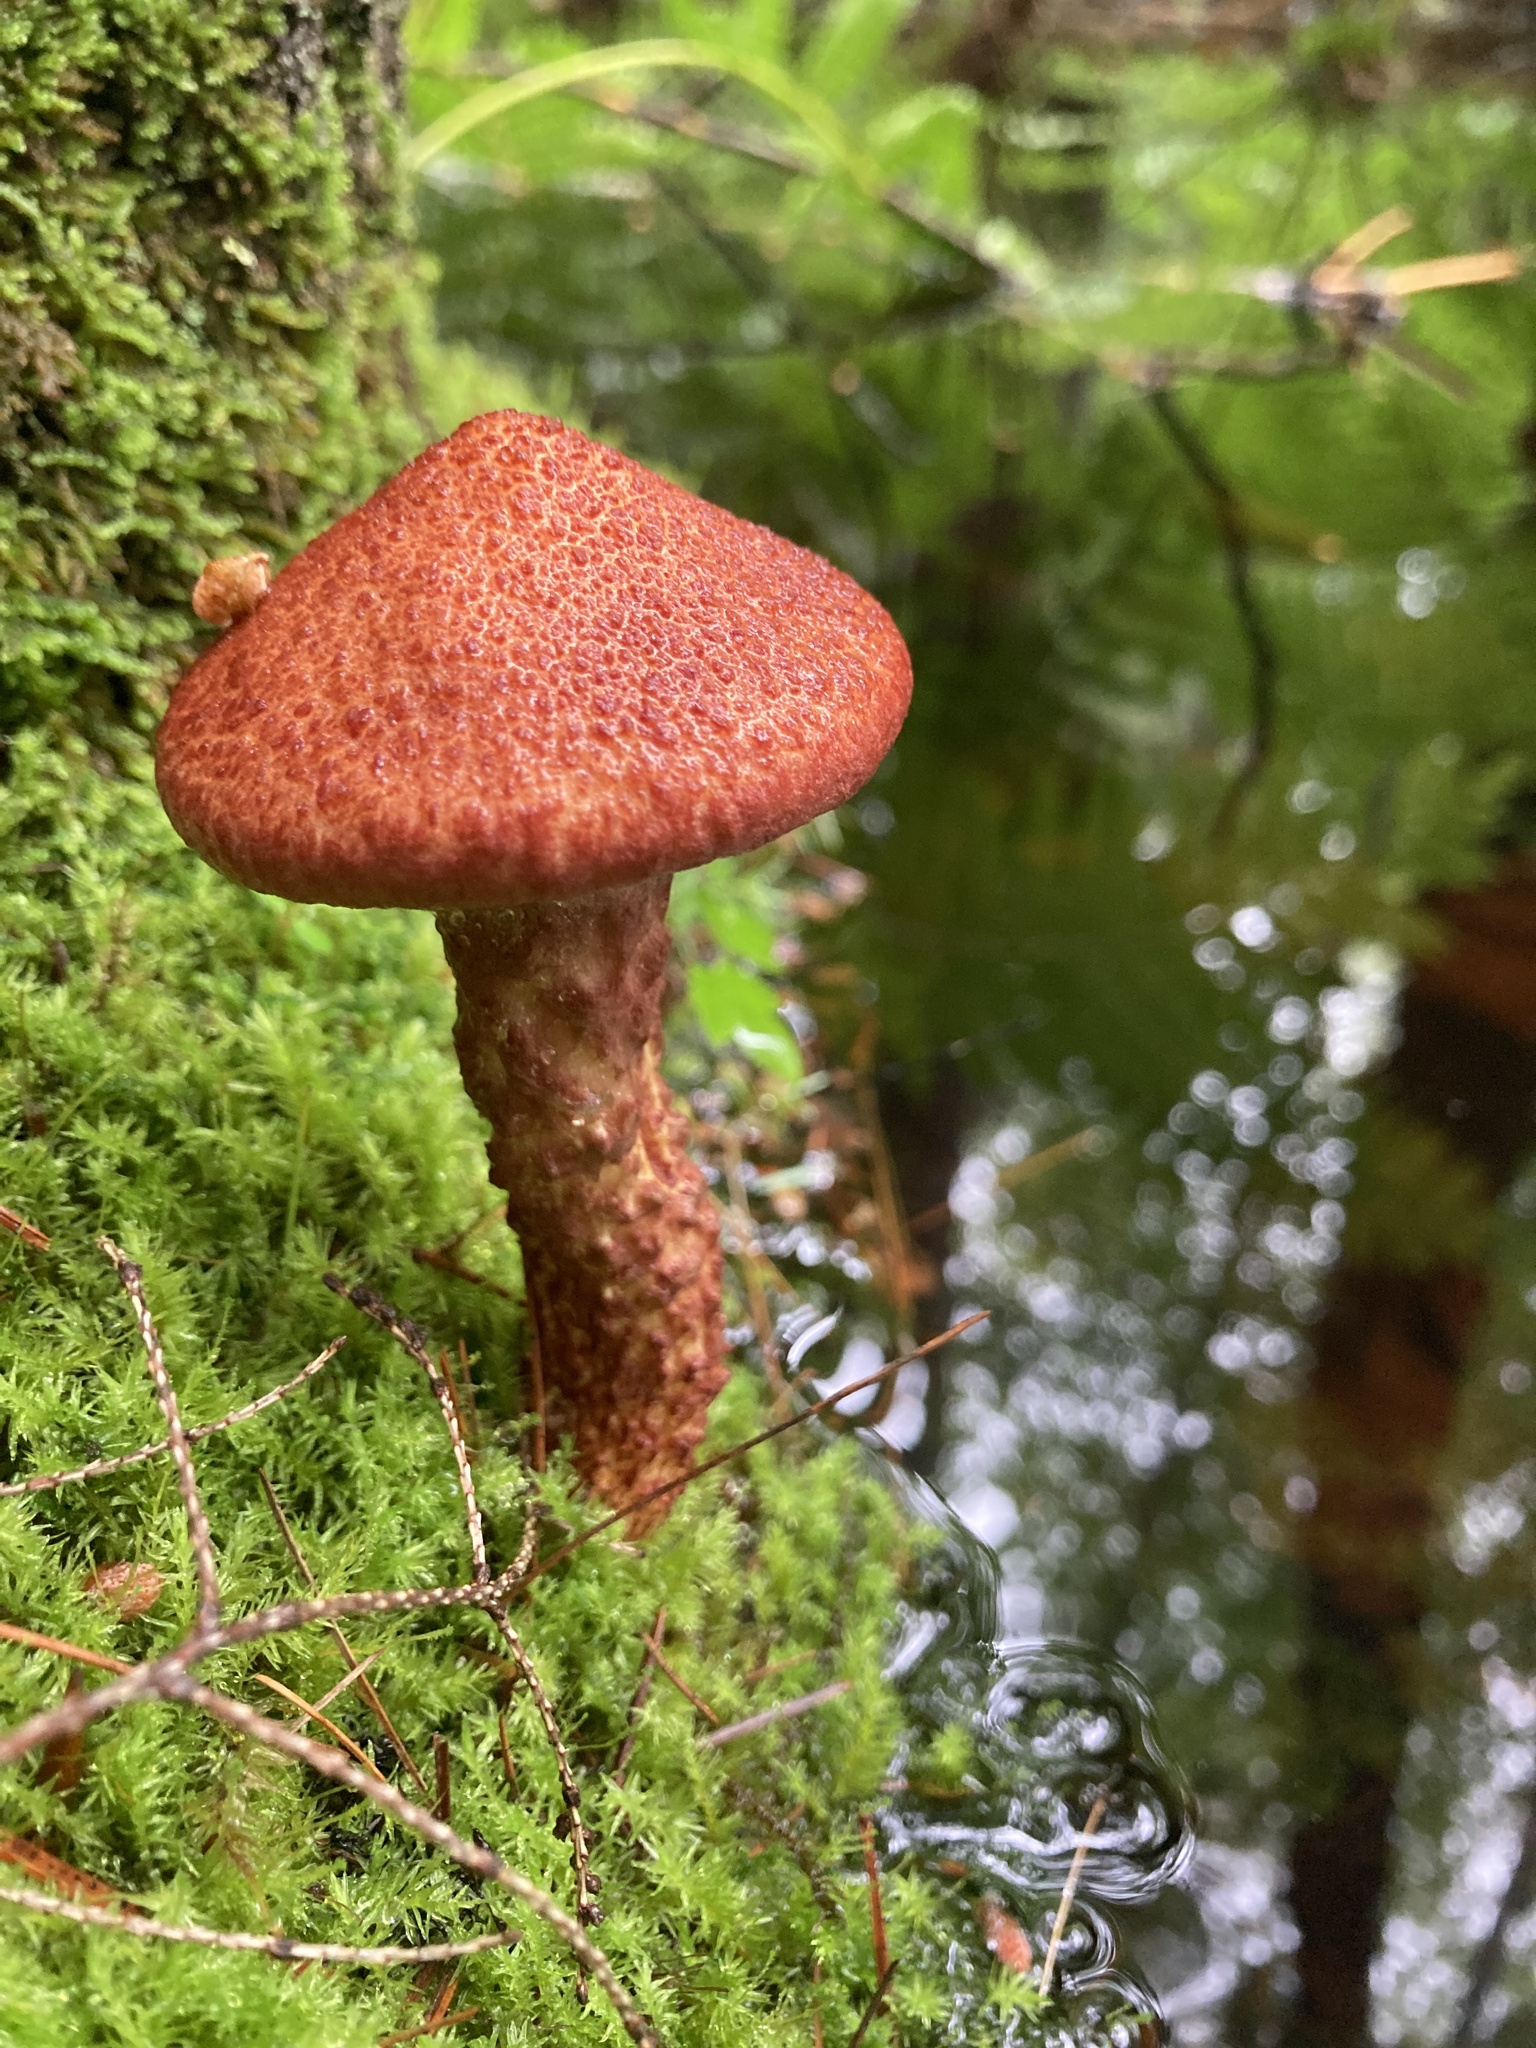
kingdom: Fungi
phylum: Basidiomycota
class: Agaricomycetes
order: Boletales
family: Suillaceae
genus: Suillus
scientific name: Suillus spraguei
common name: Painted suillus
